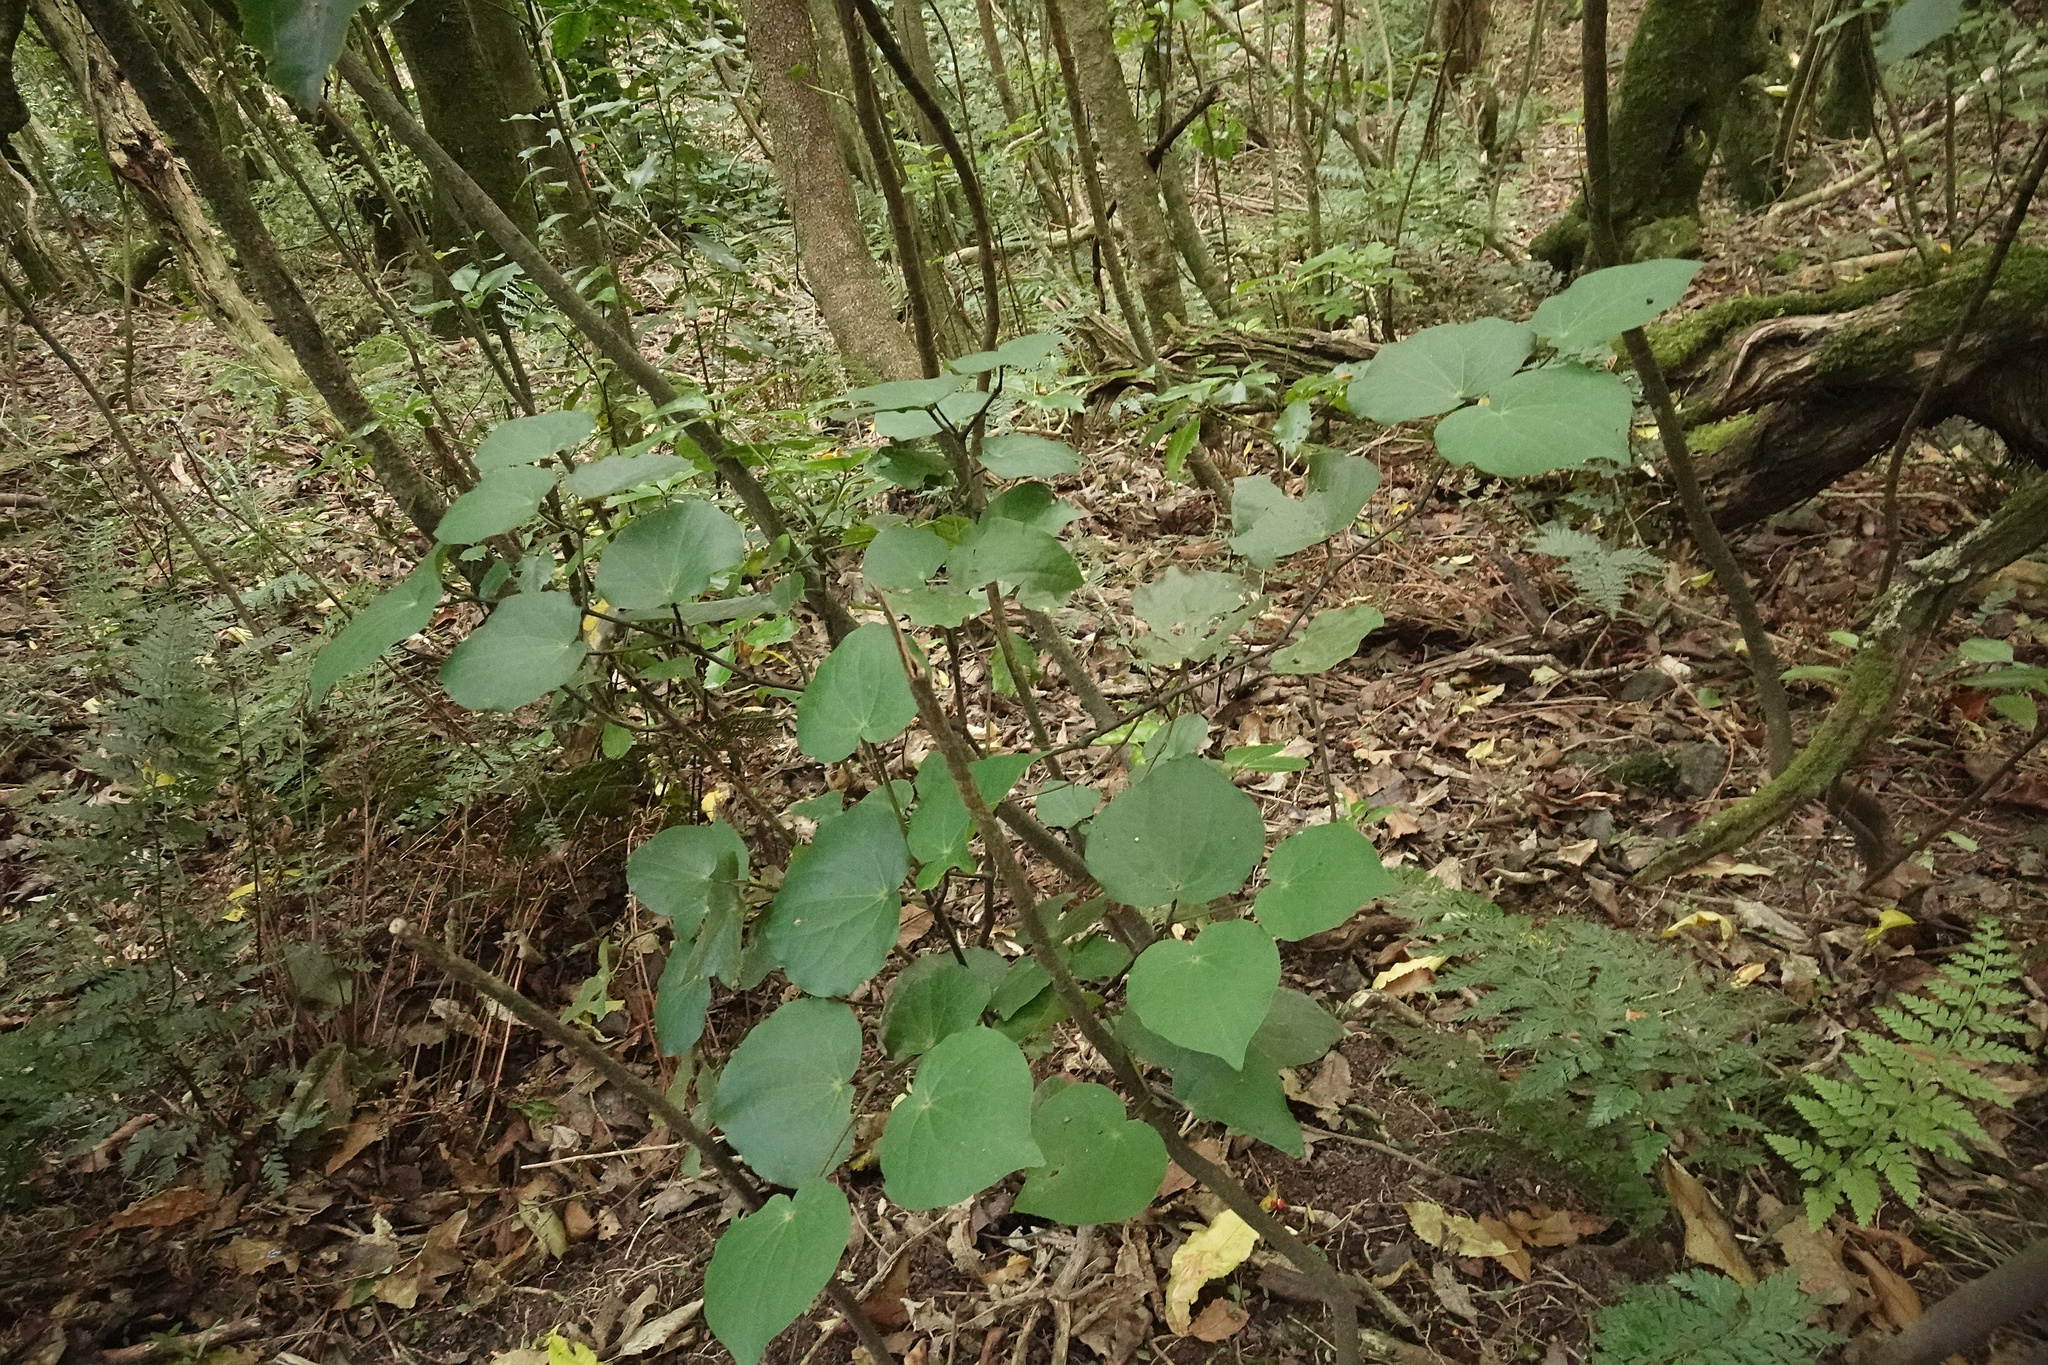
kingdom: Plantae
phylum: Tracheophyta
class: Magnoliopsida
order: Piperales
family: Piperaceae
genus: Macropiper
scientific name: Macropiper excelsum
